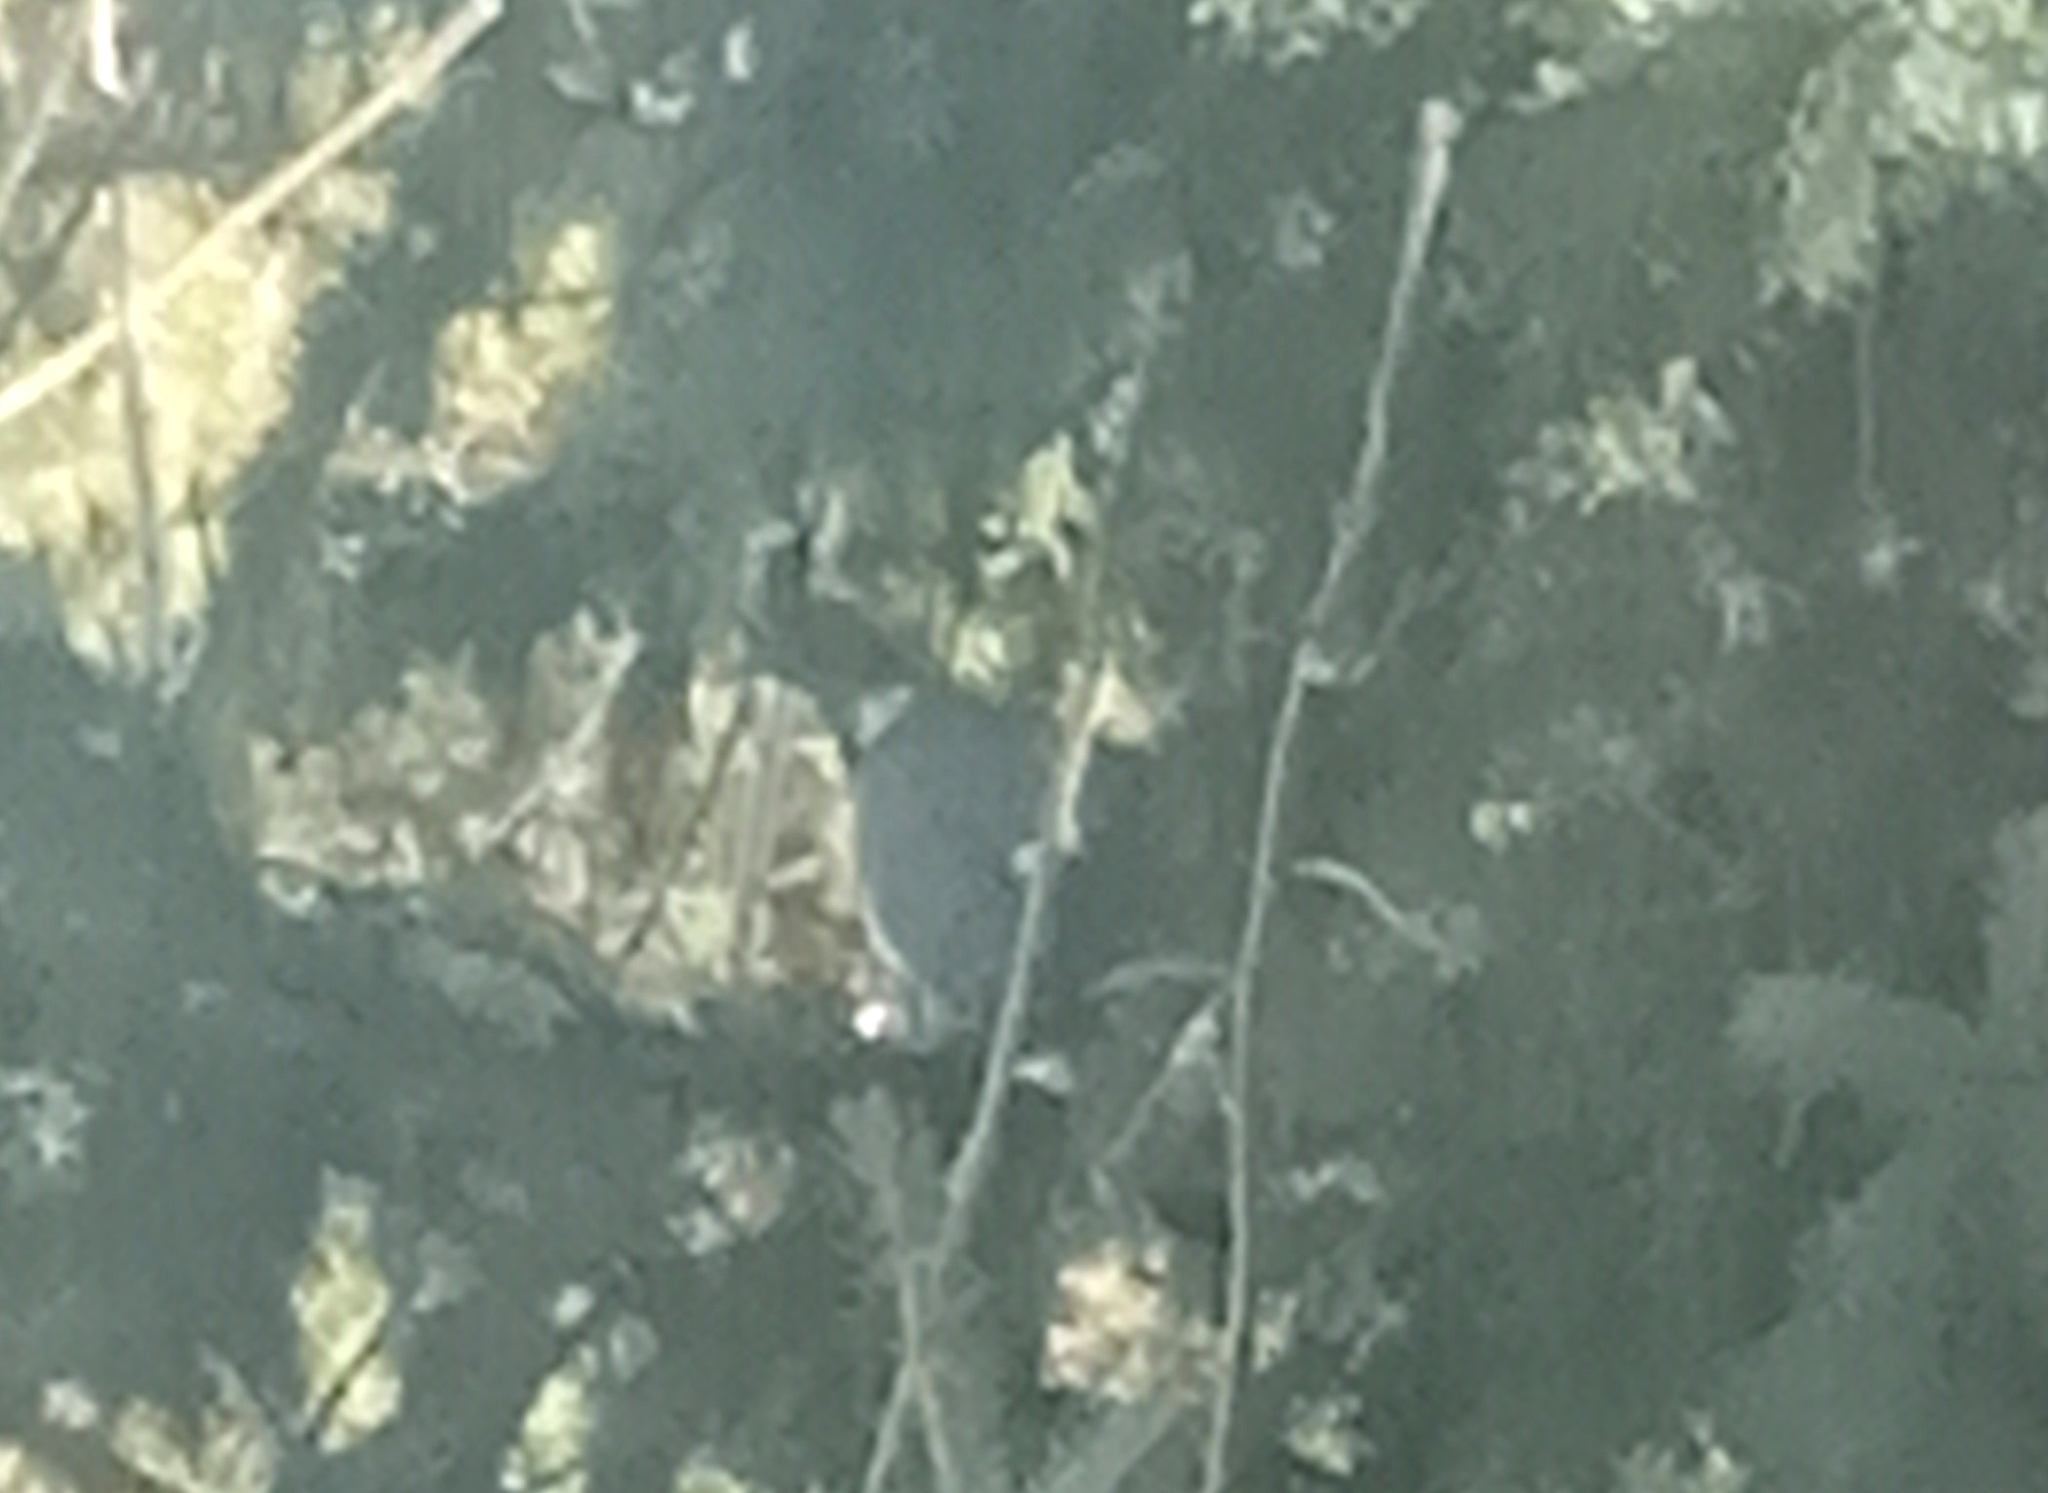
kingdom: Animalia
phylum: Chordata
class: Aves
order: Columbiformes
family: Columbidae
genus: Columba
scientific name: Columba palumbus
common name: Common wood pigeon
